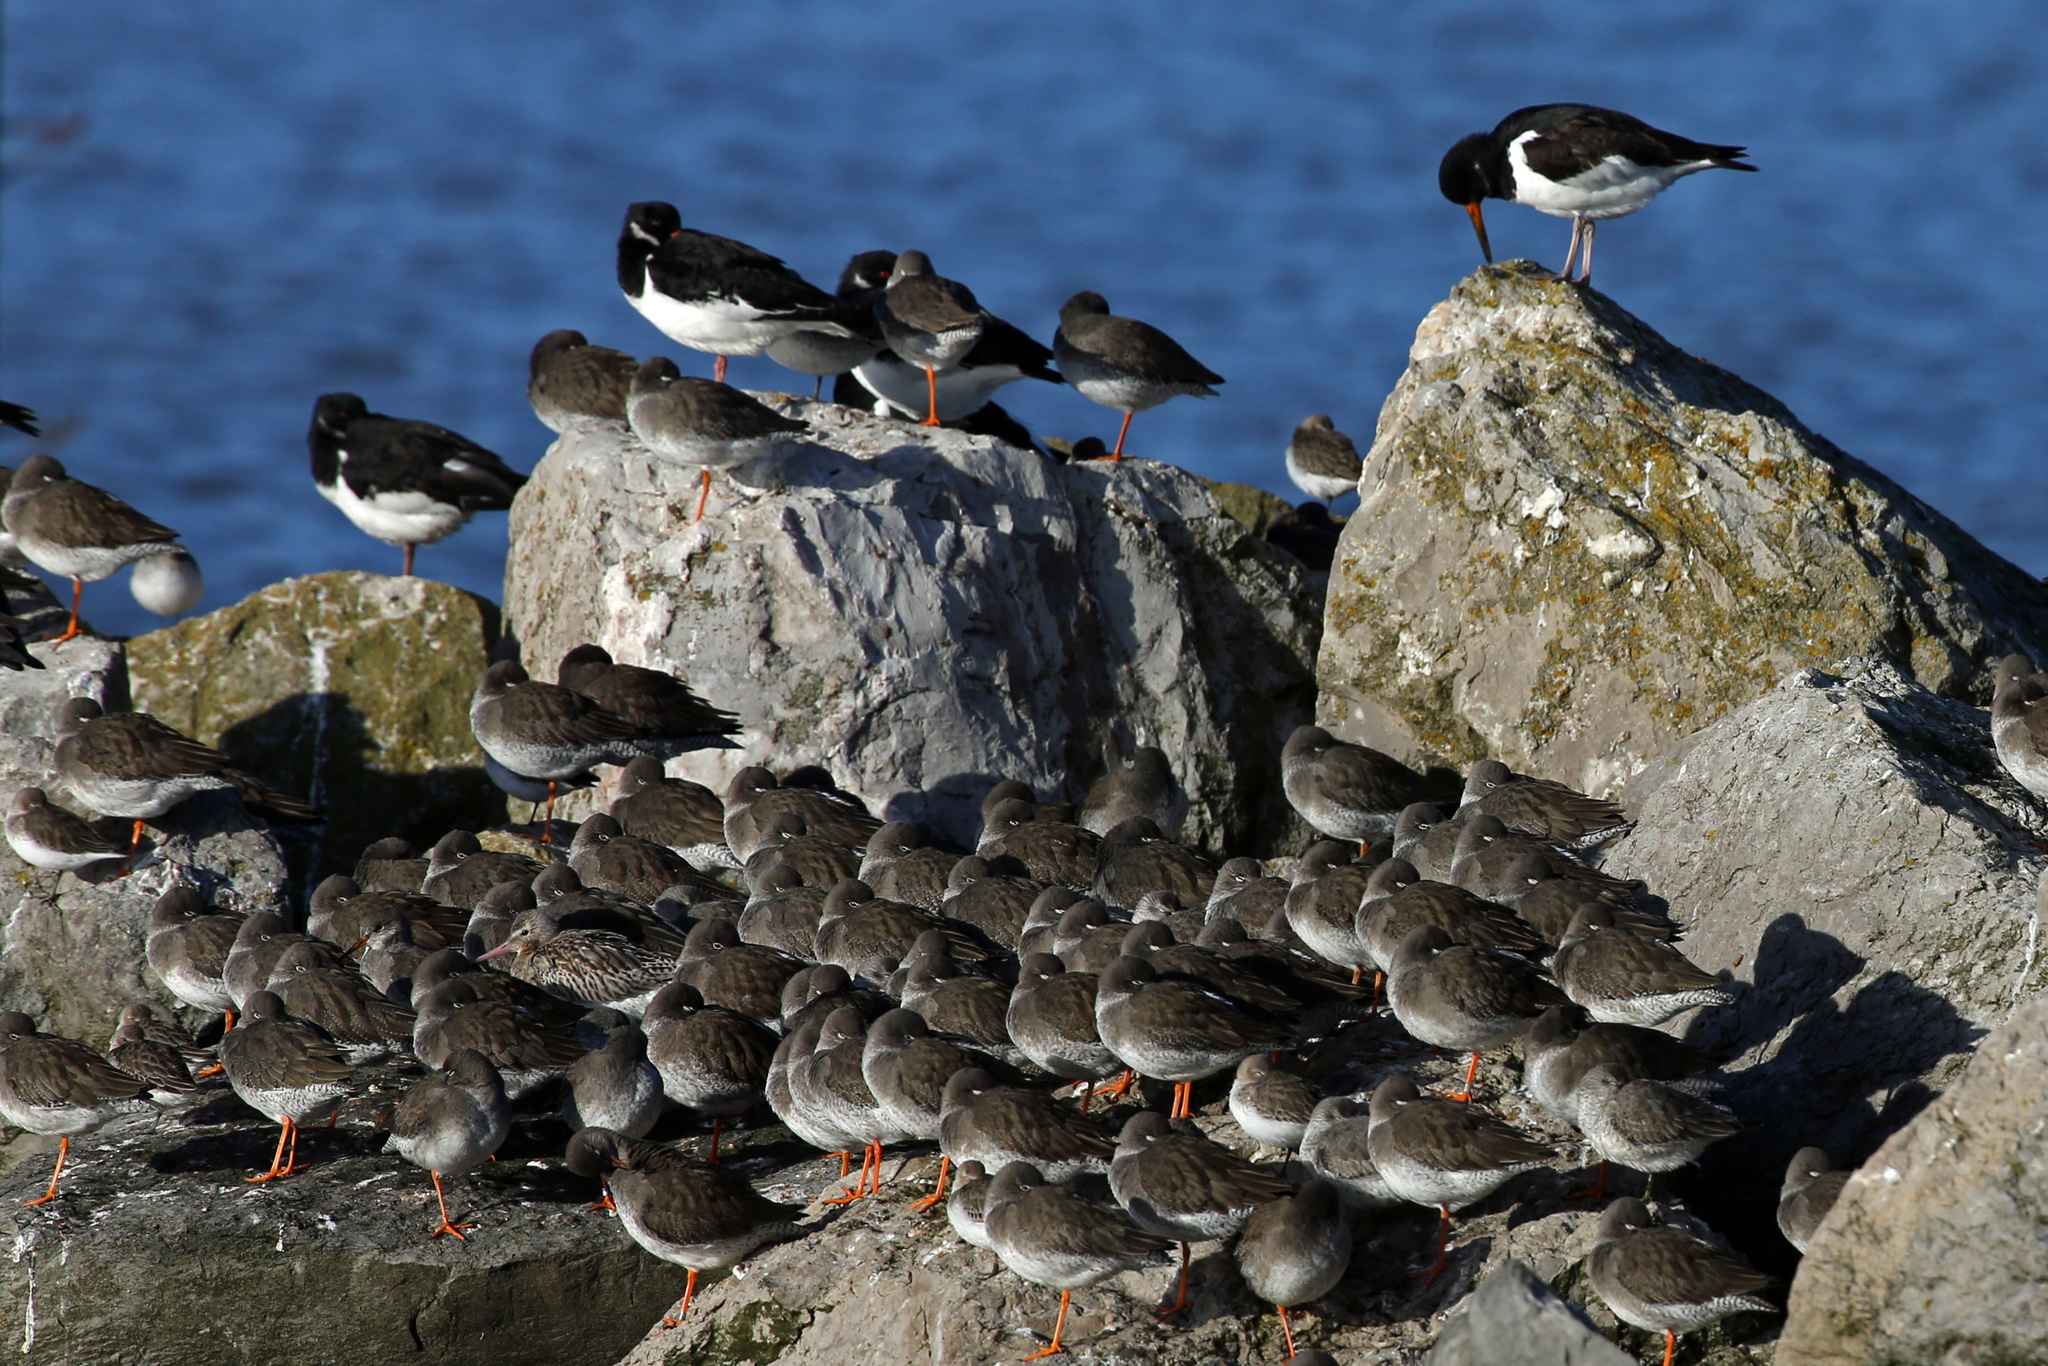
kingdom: Animalia
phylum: Chordata
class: Aves
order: Charadriiformes
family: Scolopacidae
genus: Tringa
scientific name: Tringa totanus
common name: Common redshank
